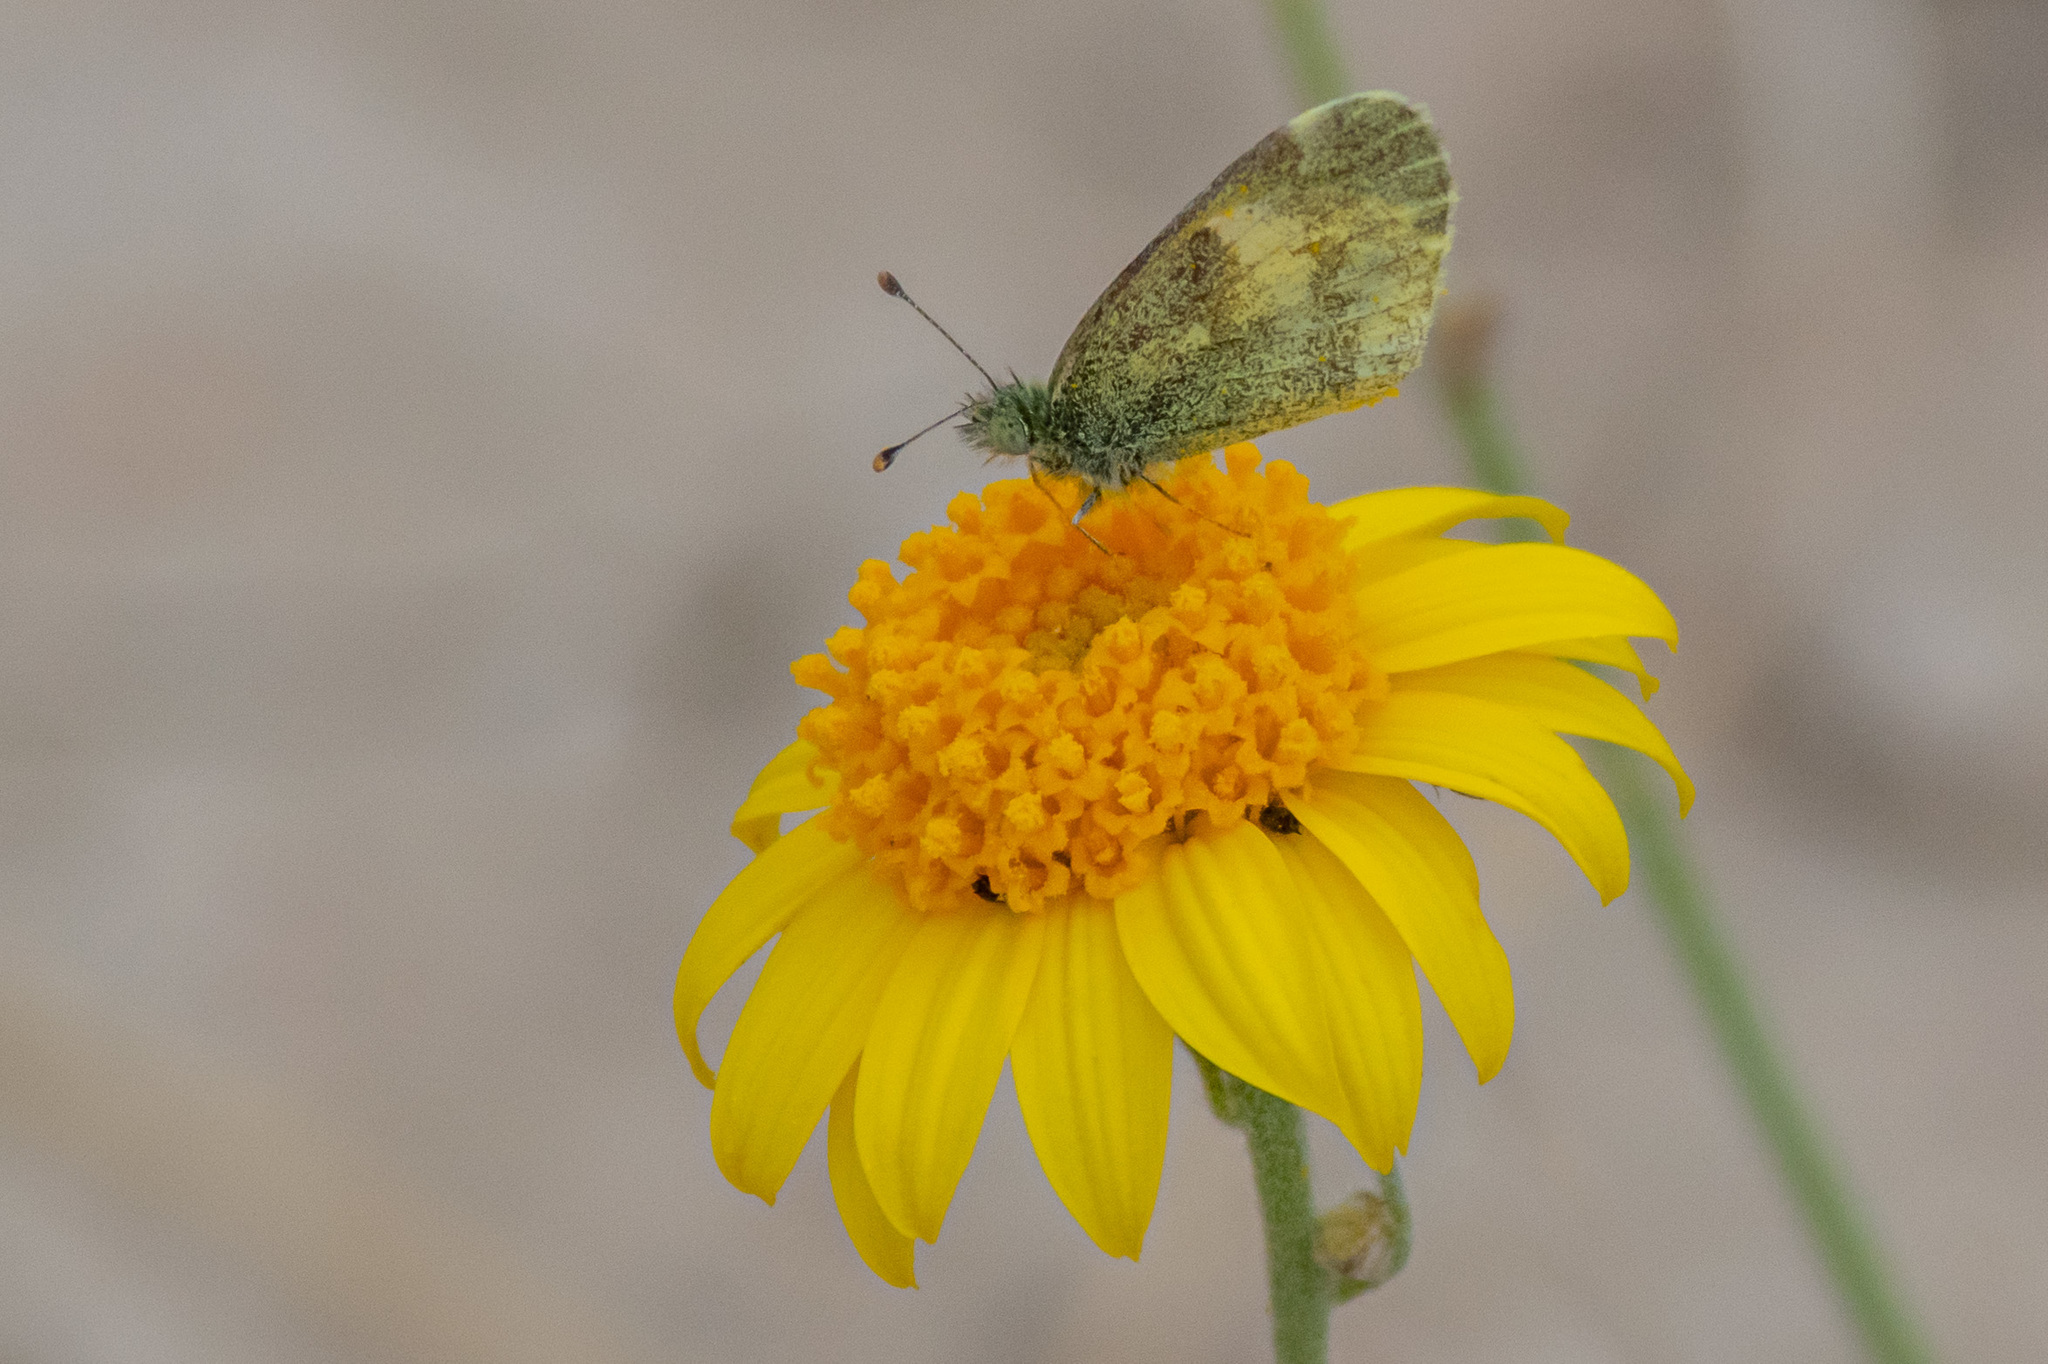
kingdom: Animalia
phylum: Arthropoda
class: Insecta
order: Lepidoptera
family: Pieridae
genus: Nathalis
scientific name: Nathalis iole
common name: Dainty sulphur
